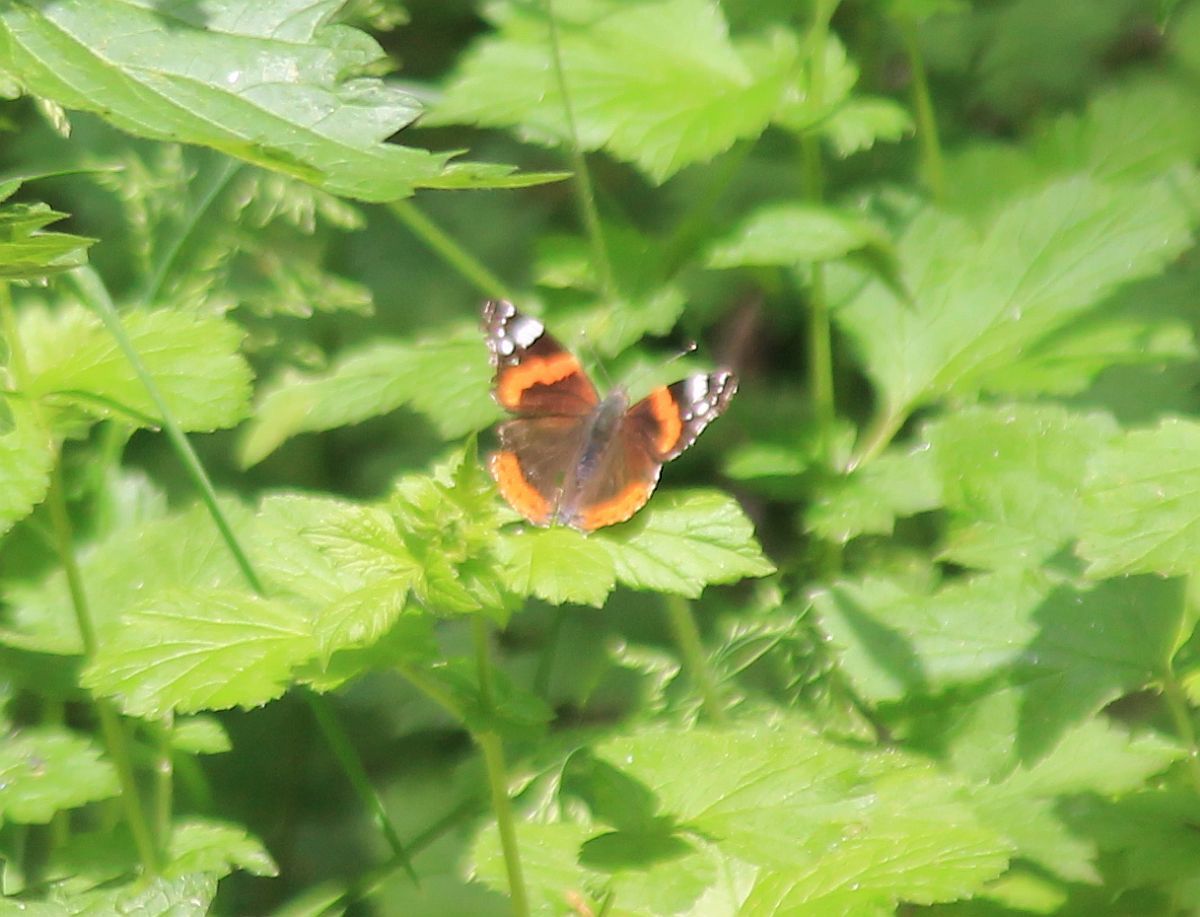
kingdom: Animalia
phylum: Arthropoda
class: Insecta
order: Lepidoptera
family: Nymphalidae
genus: Vanessa
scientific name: Vanessa atalanta
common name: Red admiral
